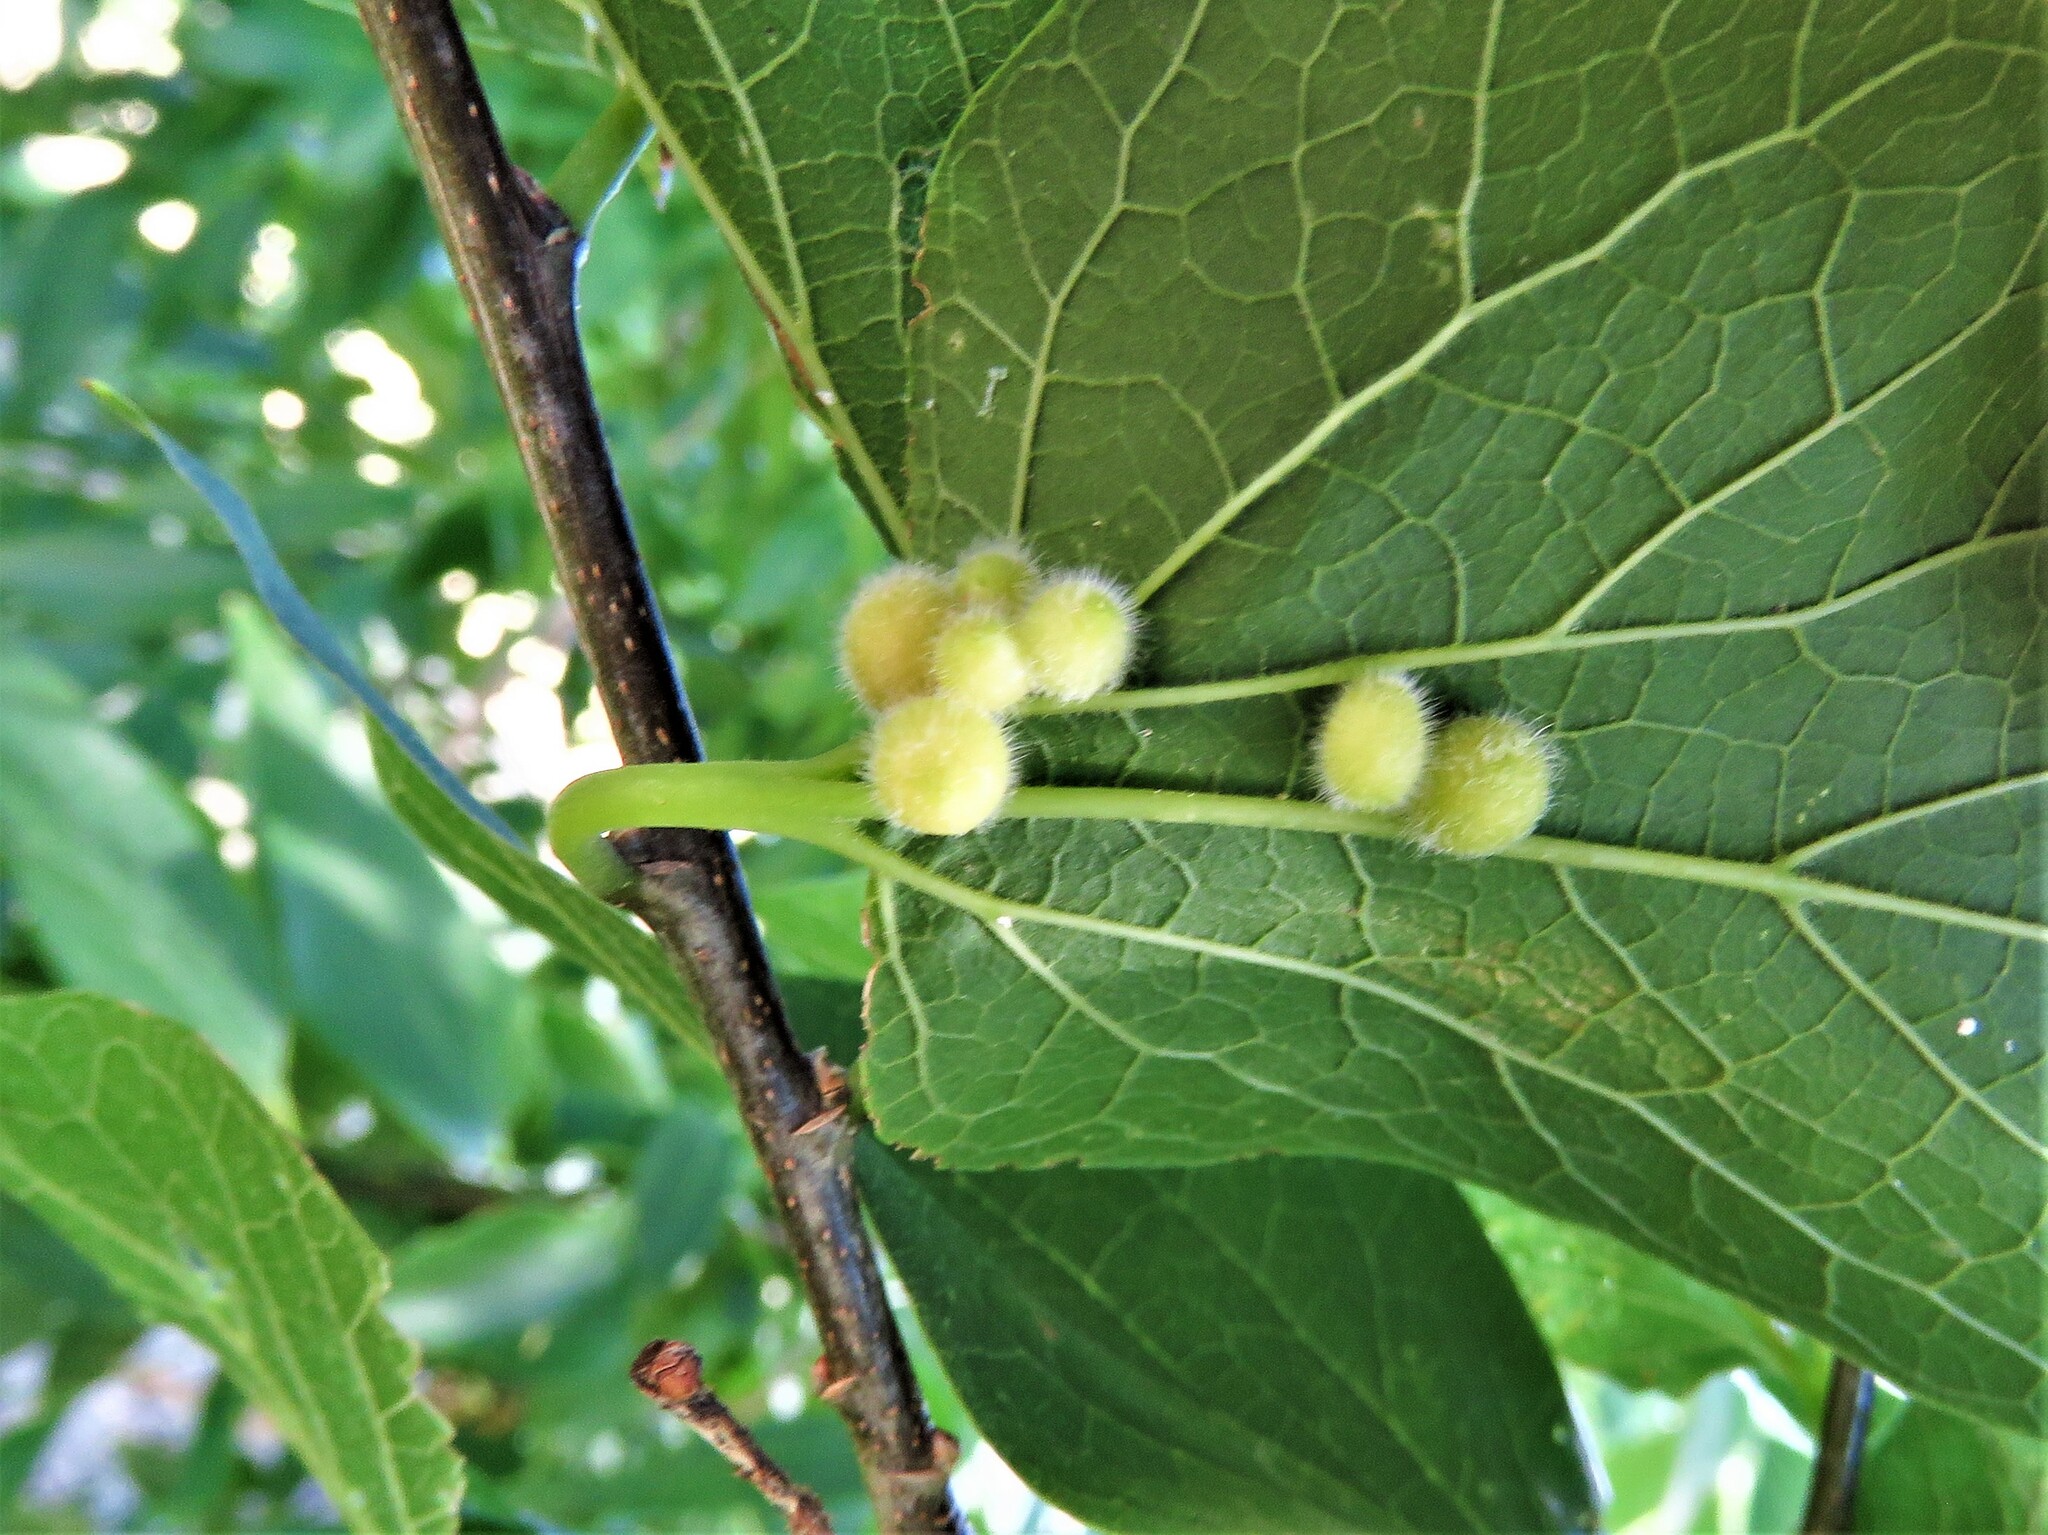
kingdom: Animalia
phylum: Arthropoda
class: Insecta
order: Diptera
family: Cecidomyiidae
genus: Celticecis
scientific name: Celticecis pubescens
